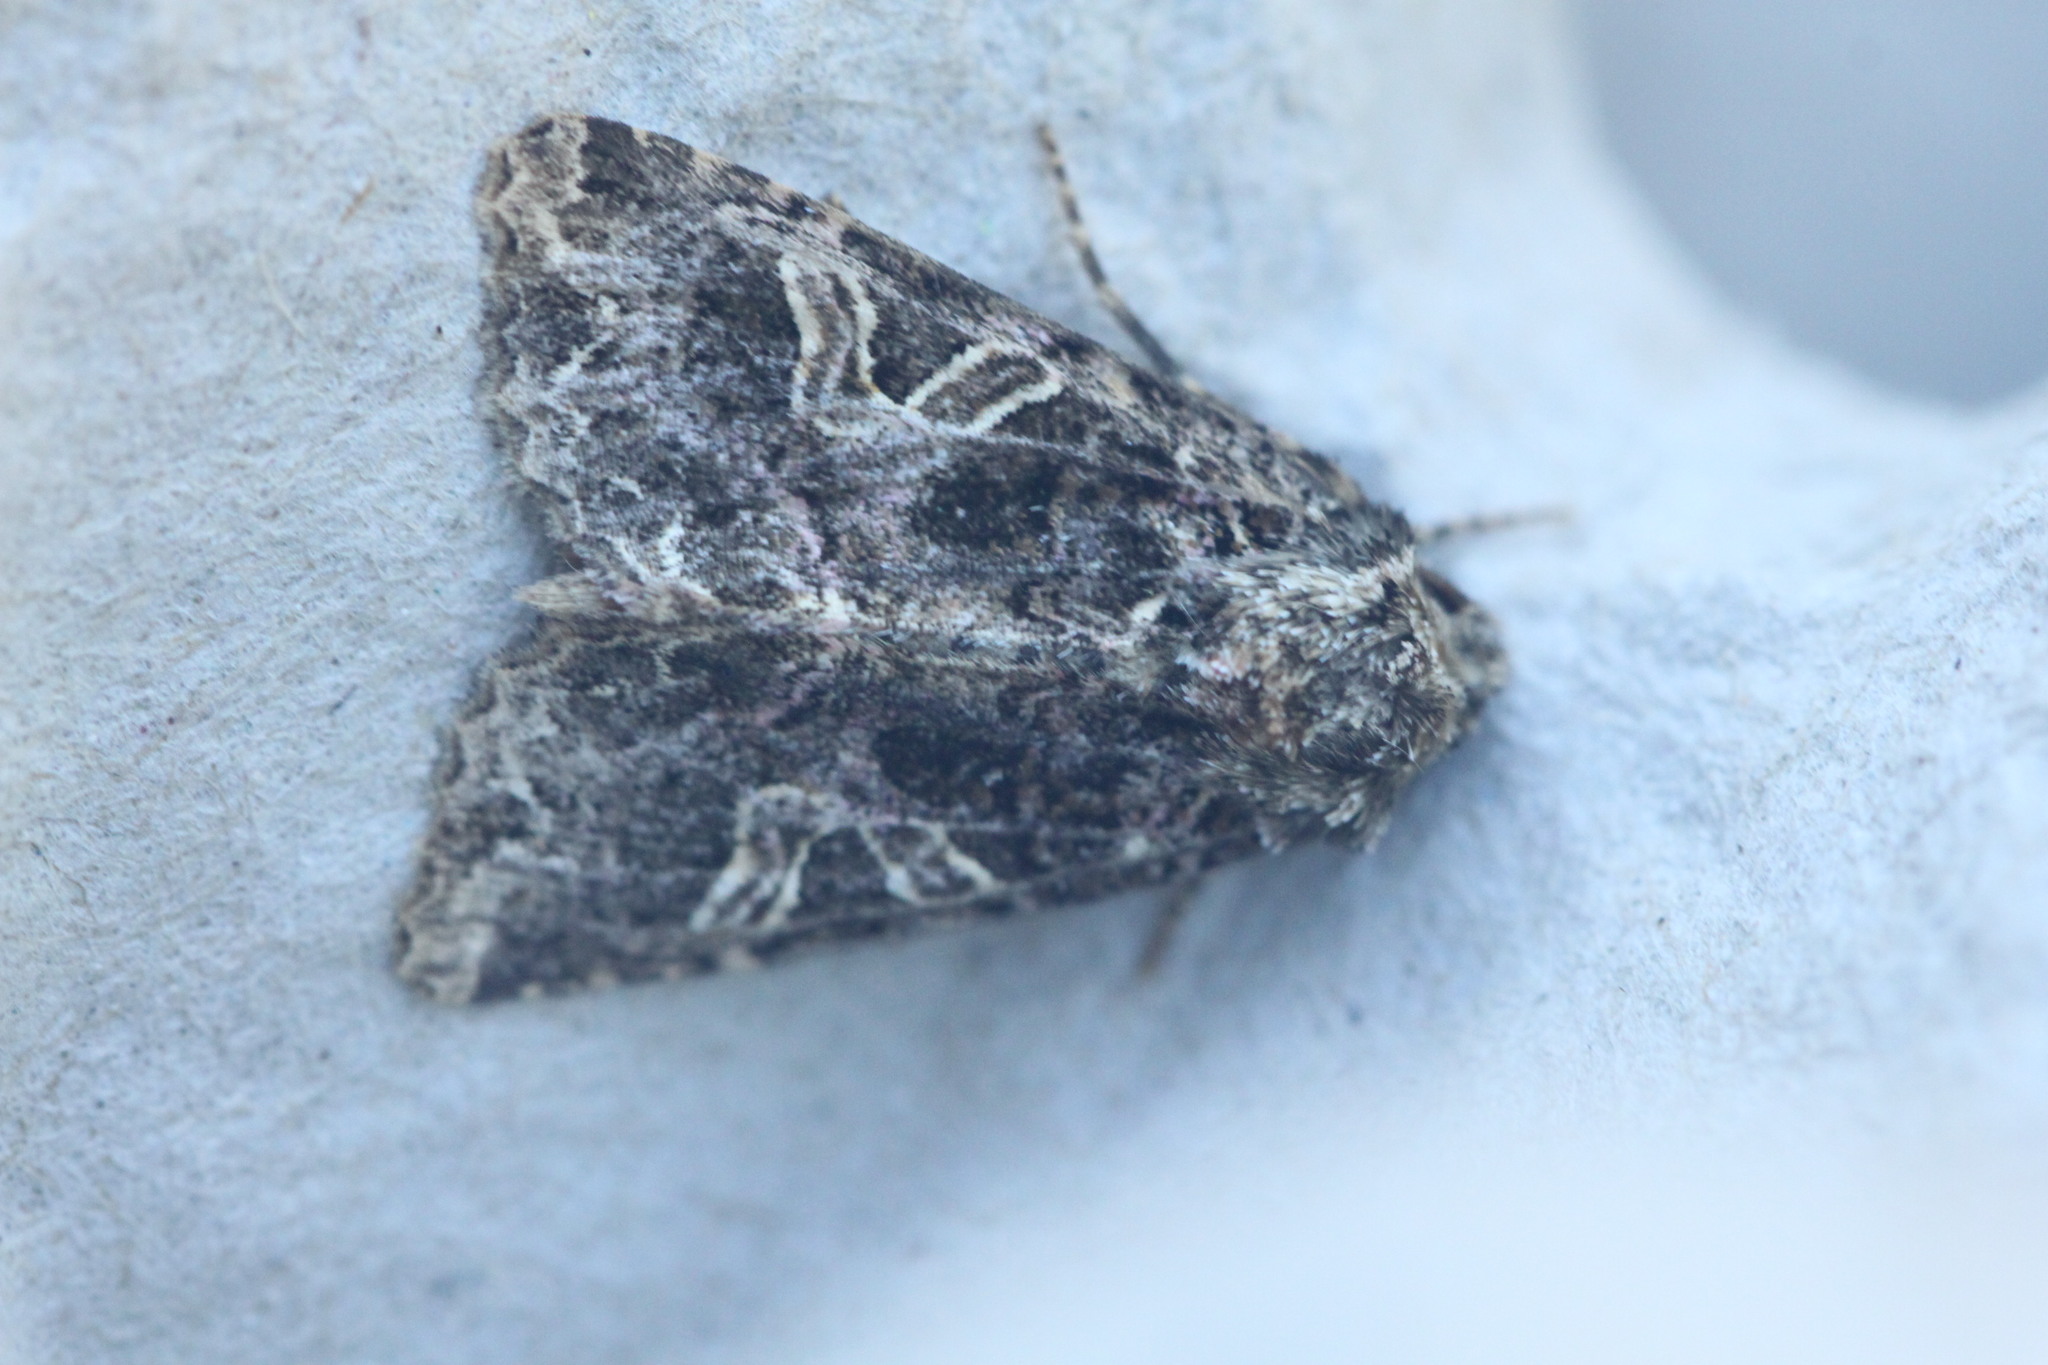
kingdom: Animalia
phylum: Arthropoda
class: Insecta
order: Lepidoptera
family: Noctuidae
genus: Hadena
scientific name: Hadena bicruris
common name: Lychnis
